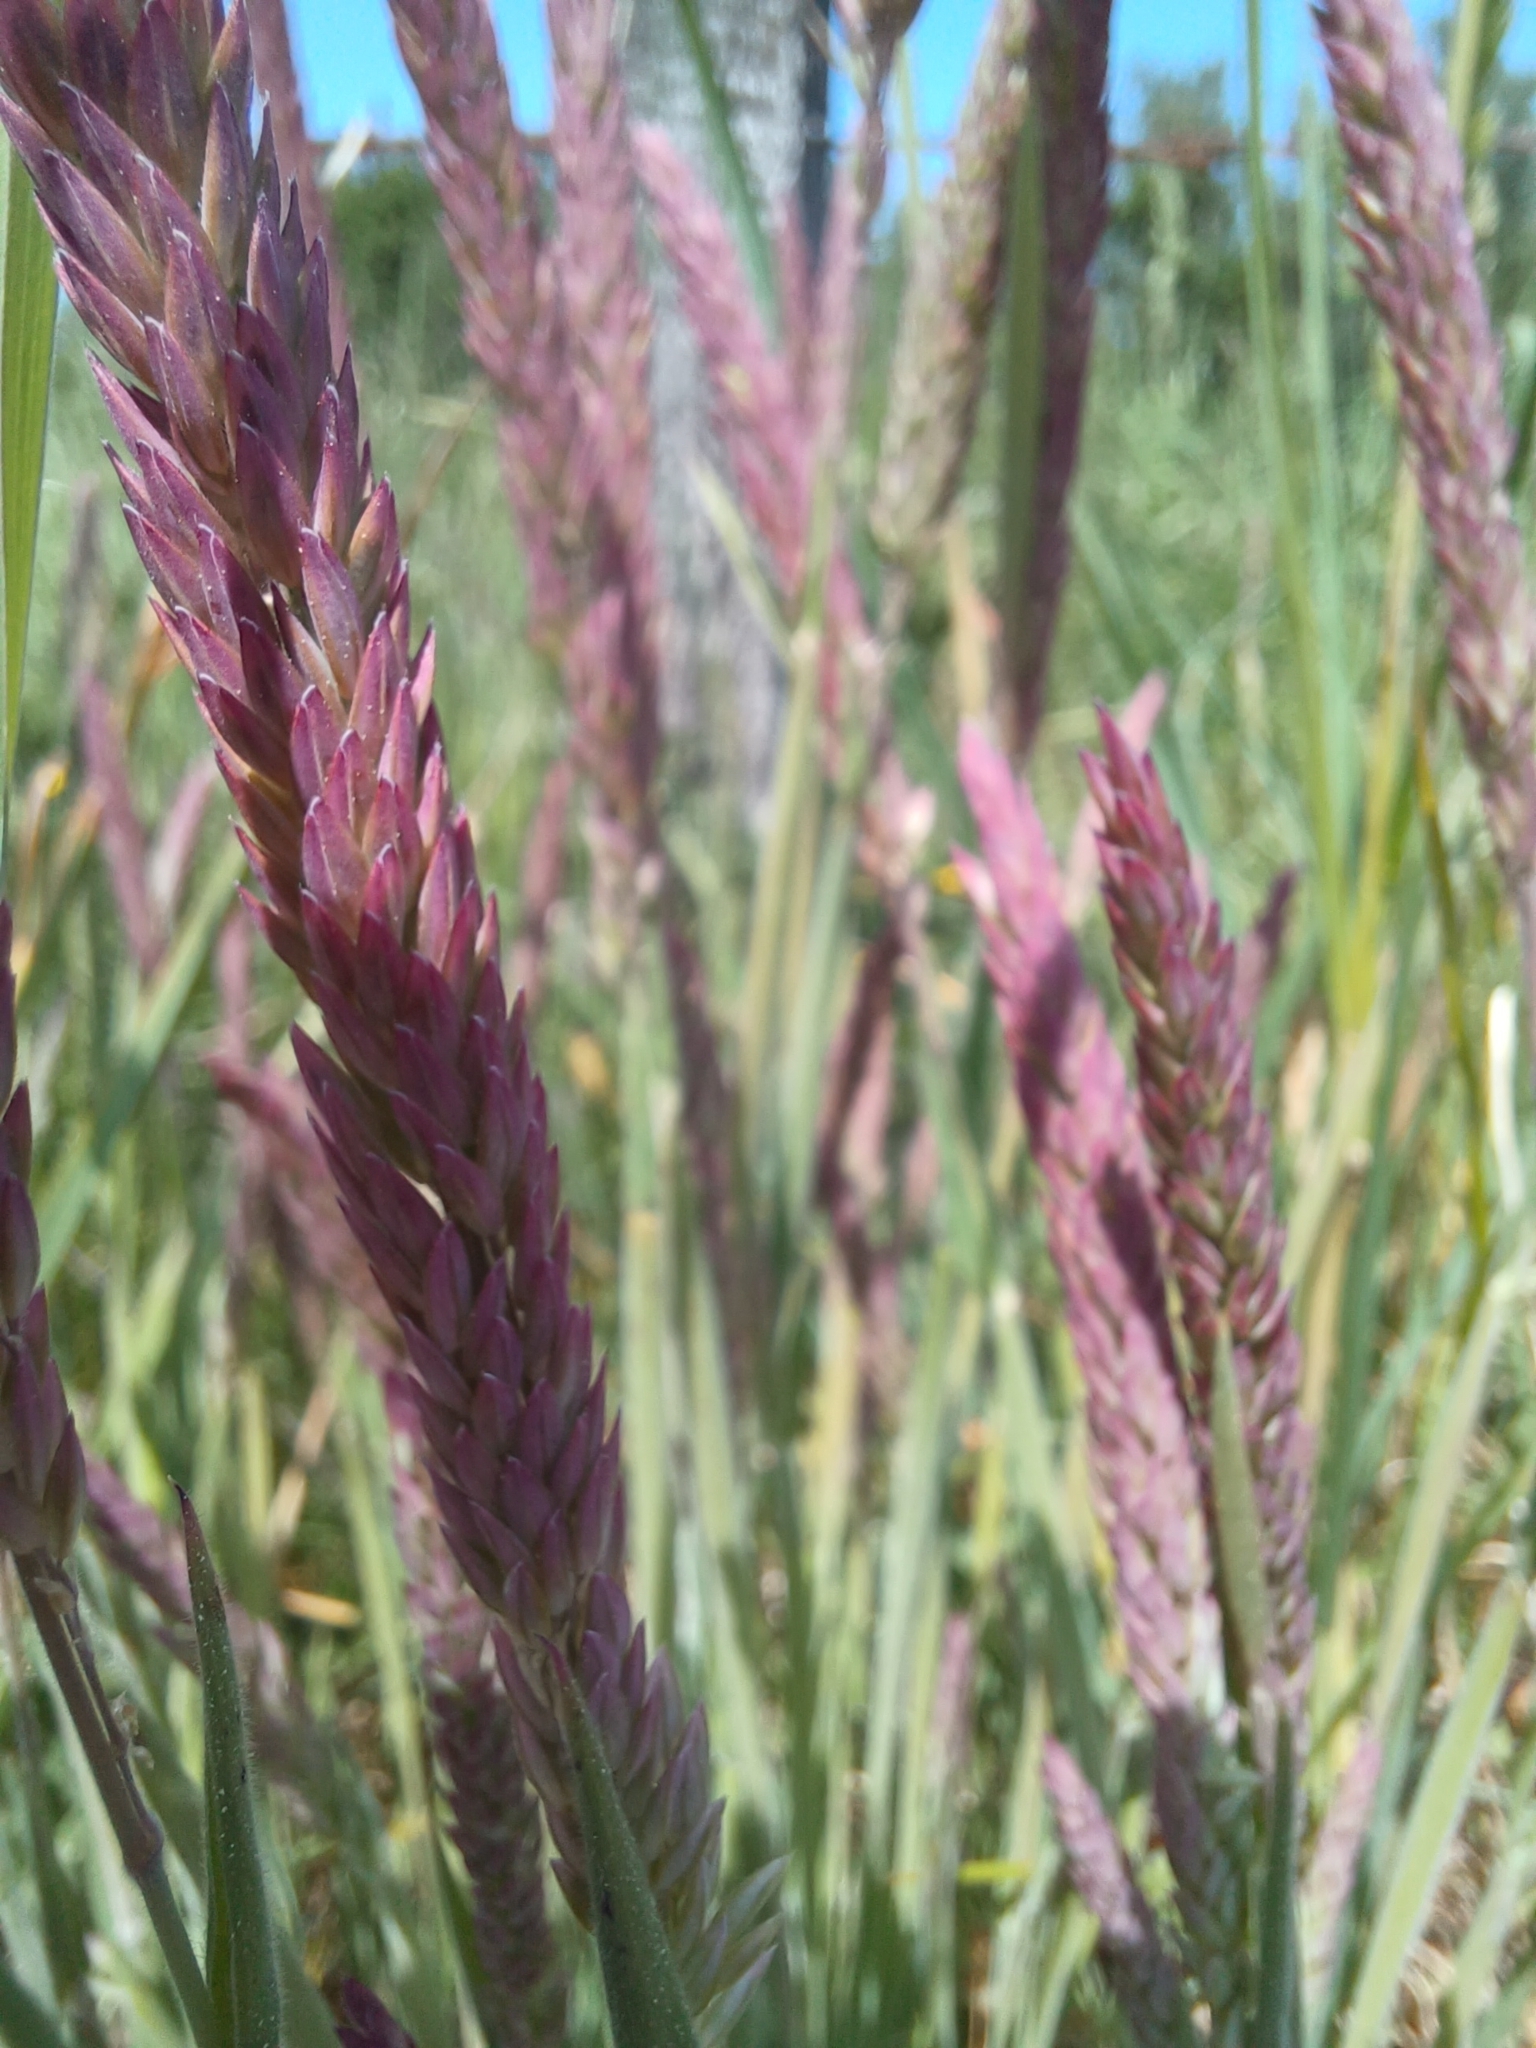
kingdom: Plantae
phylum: Tracheophyta
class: Liliopsida
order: Poales
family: Poaceae
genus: Holcus
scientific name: Holcus lanatus
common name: Yorkshire-fog
